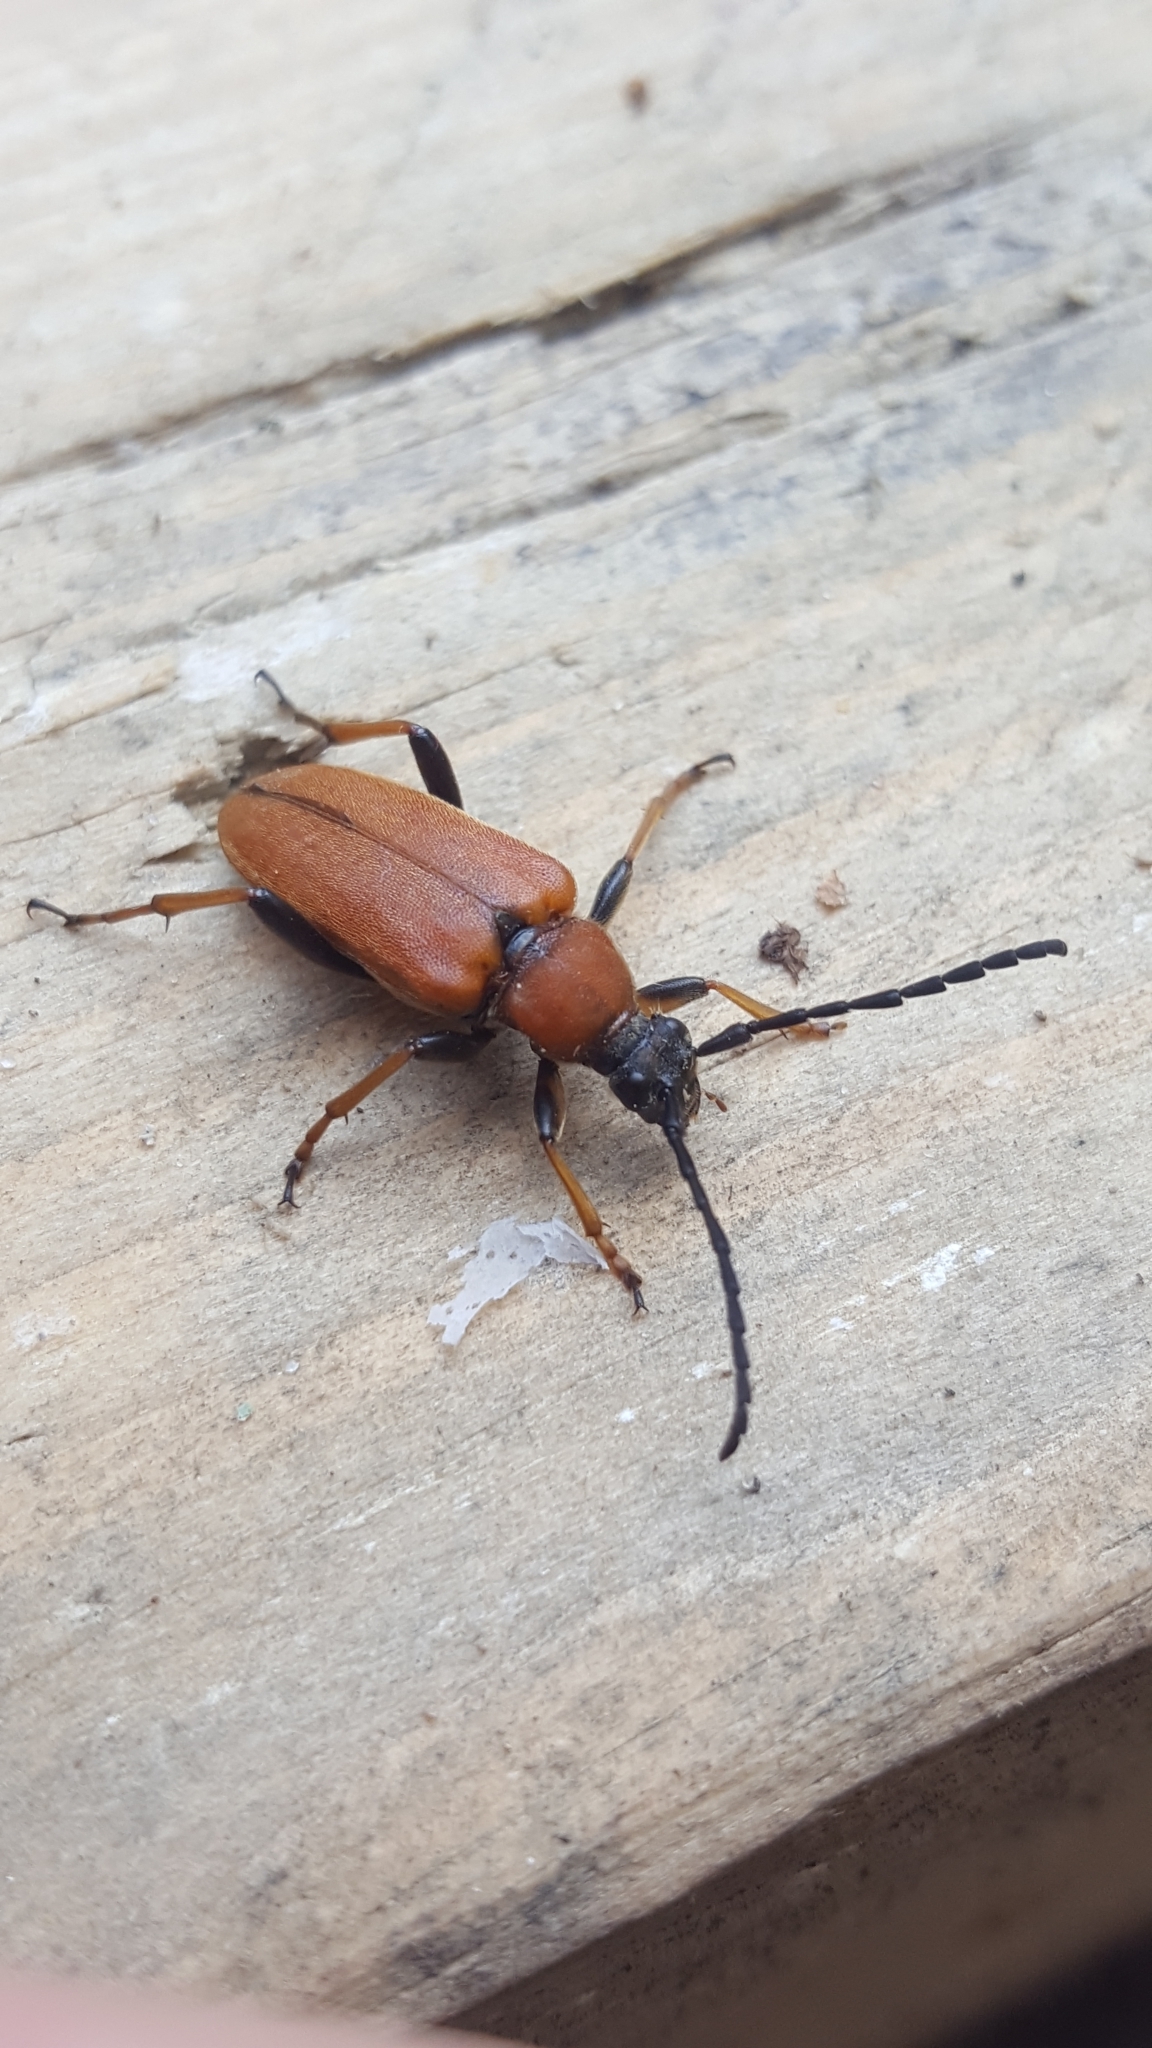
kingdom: Animalia
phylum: Arthropoda
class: Insecta
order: Coleoptera
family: Cerambycidae
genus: Stictoleptura
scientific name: Stictoleptura rubra
